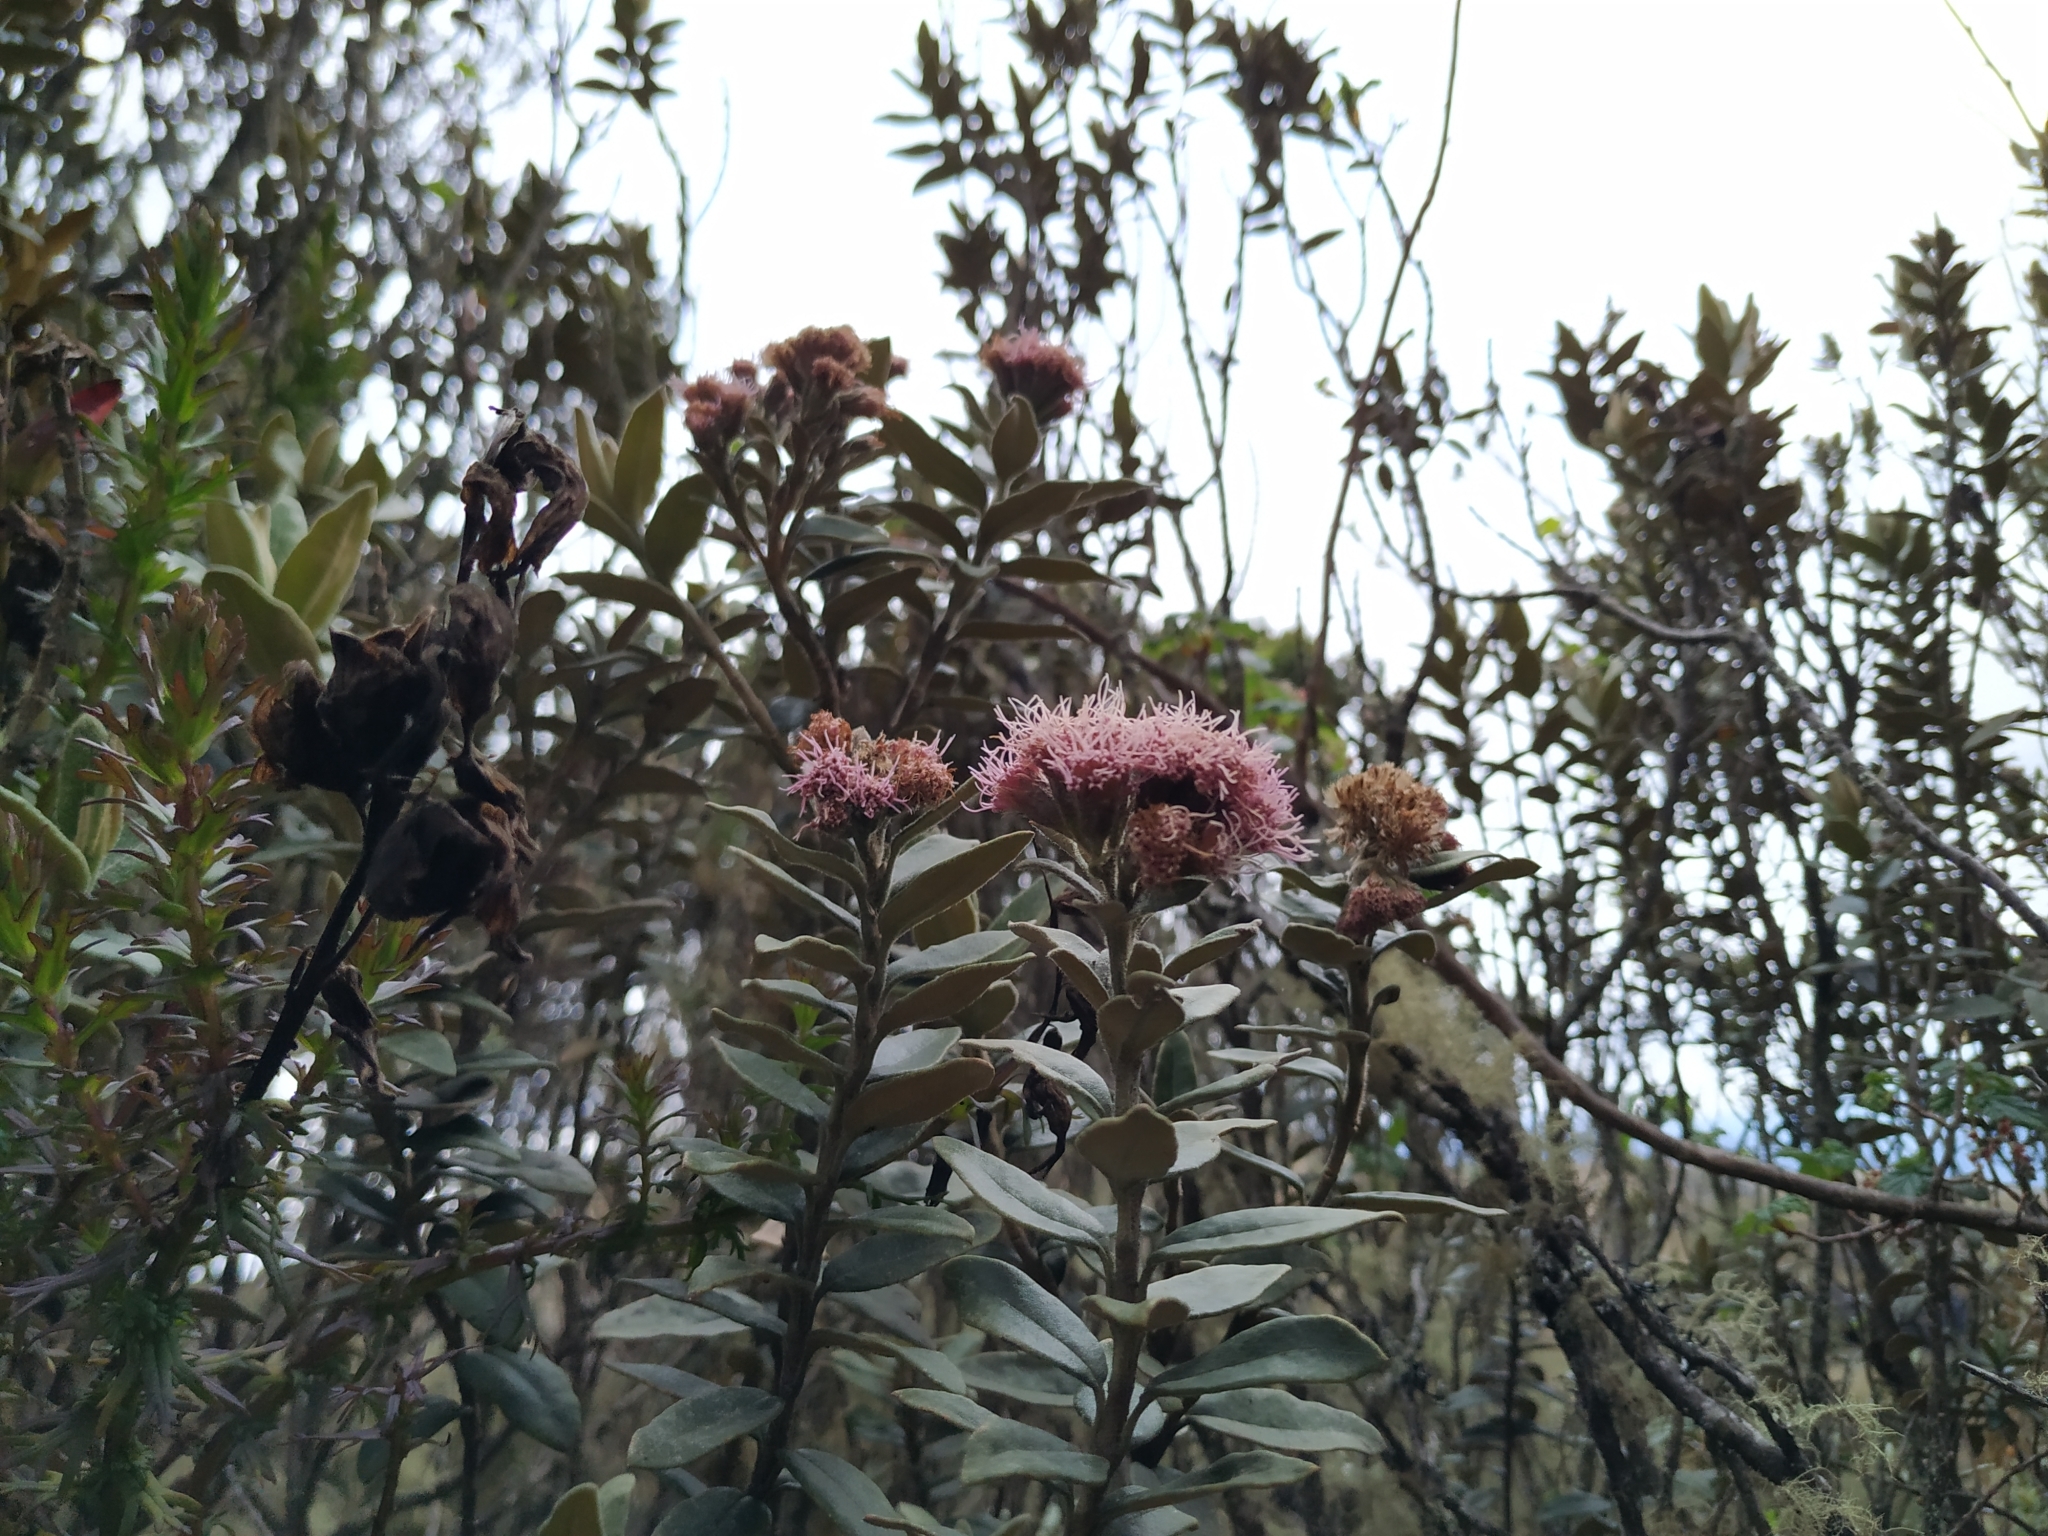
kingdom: Plantae
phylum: Tracheophyta
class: Magnoliopsida
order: Asterales
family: Asteraceae
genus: Ageratina
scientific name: Ageratina gynoxoides
